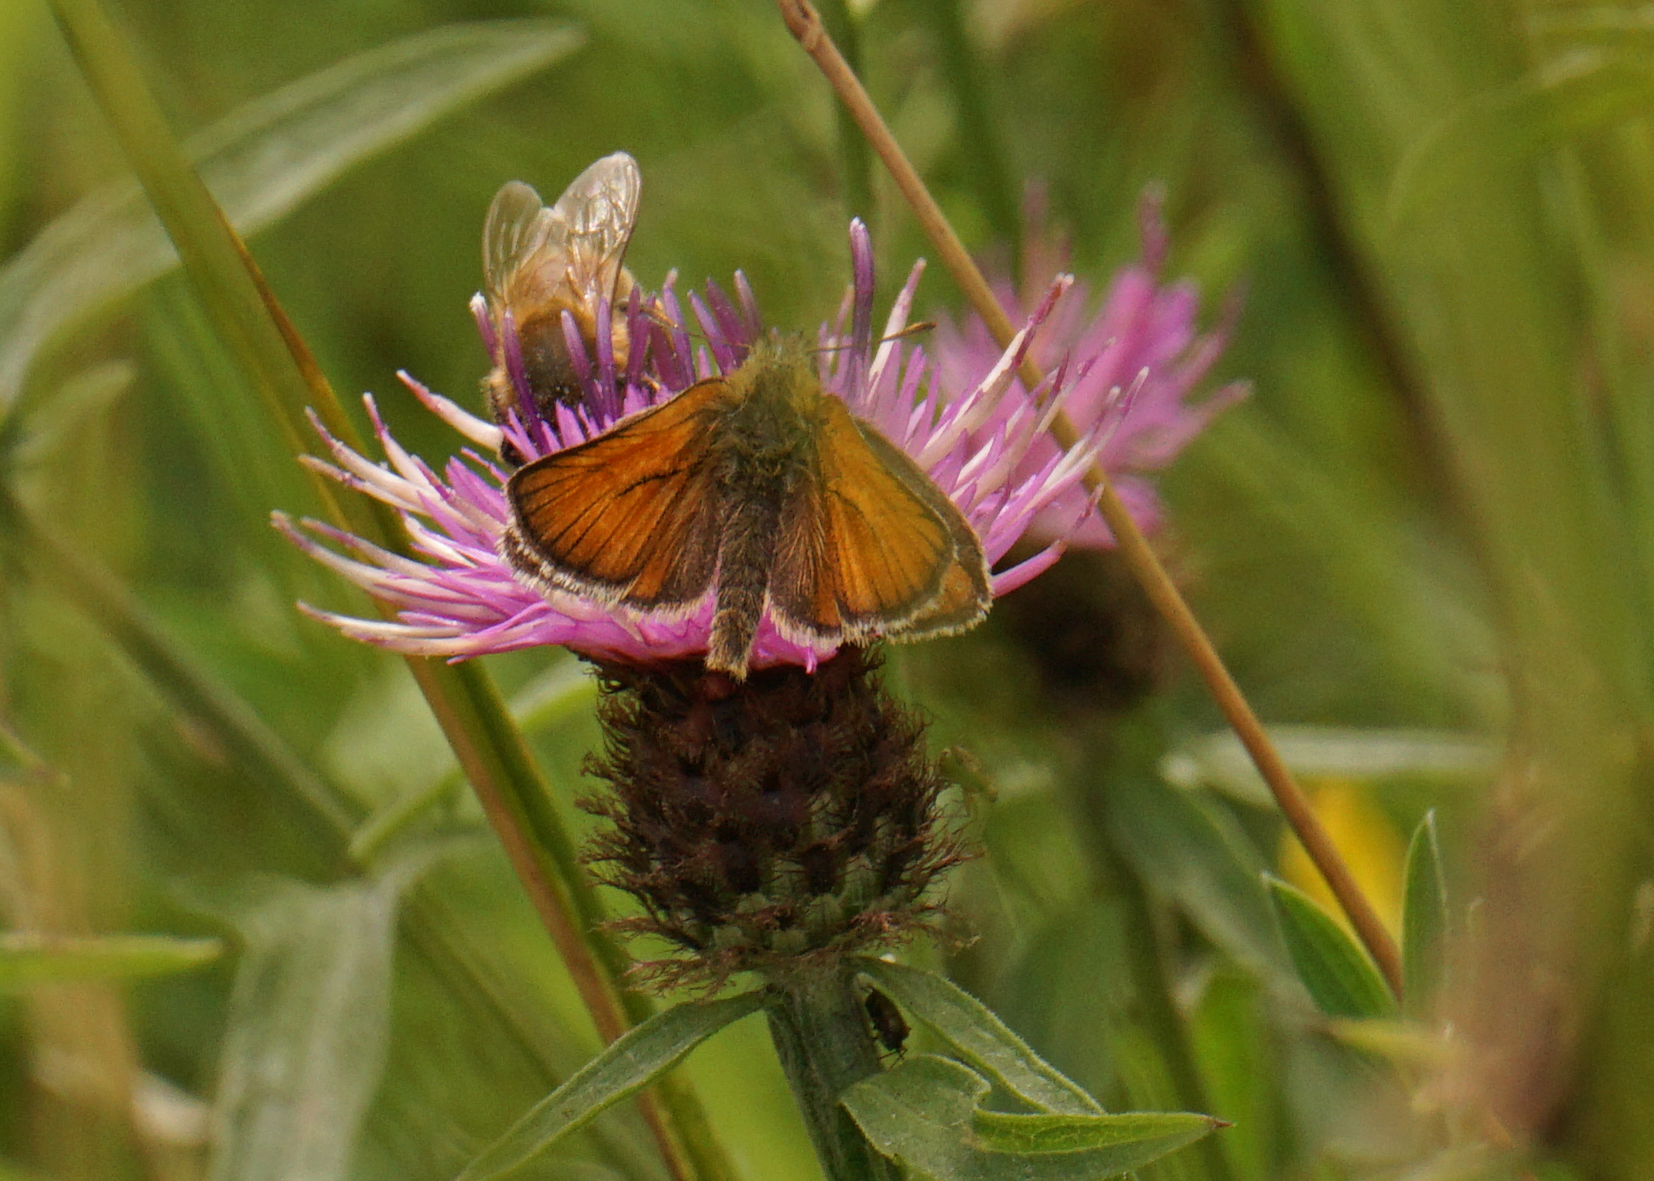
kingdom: Animalia
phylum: Arthropoda
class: Insecta
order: Lepidoptera
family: Hesperiidae
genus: Thymelicus
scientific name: Thymelicus sylvestris
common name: Small skipper
